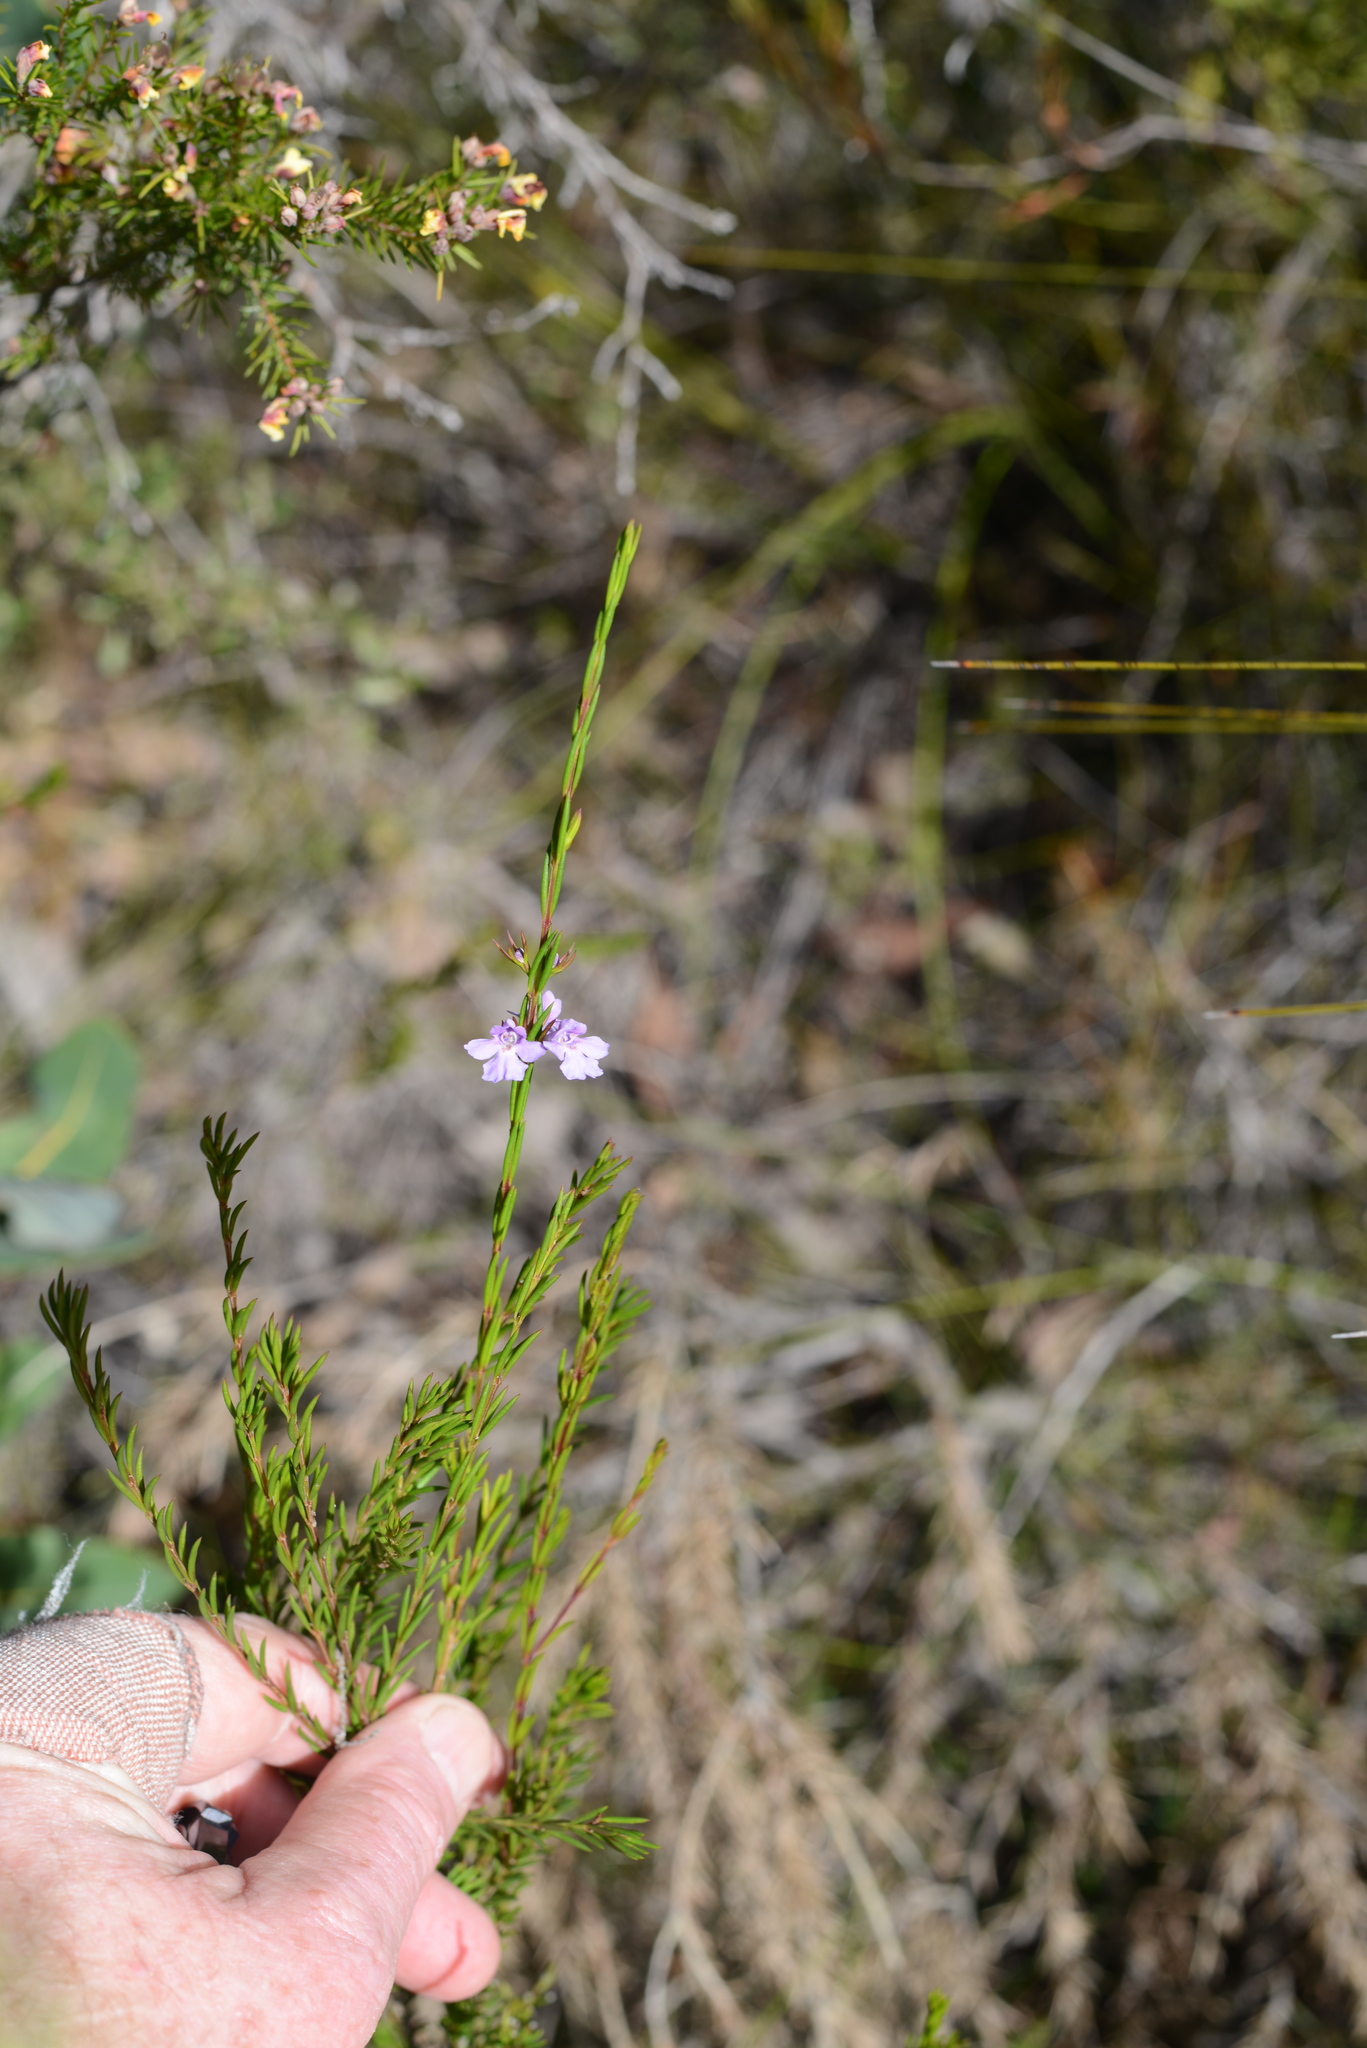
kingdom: Plantae
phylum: Tracheophyta
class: Magnoliopsida
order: Lamiales
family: Lamiaceae
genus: Hemigenia
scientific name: Hemigenia purpurea
